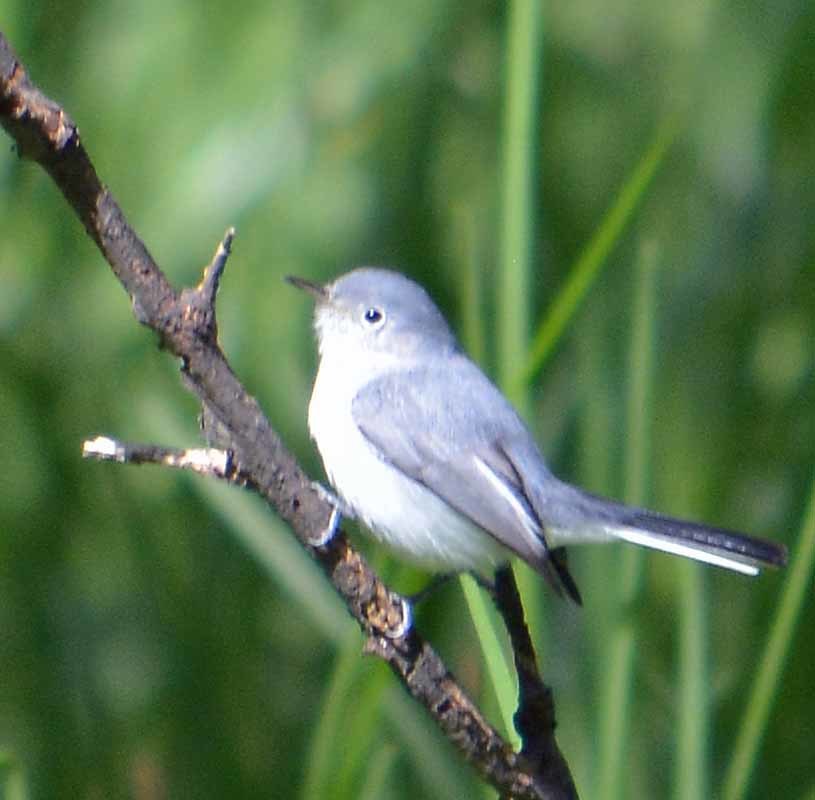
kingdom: Animalia
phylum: Chordata
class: Aves
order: Passeriformes
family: Polioptilidae
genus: Polioptila
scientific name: Polioptila caerulea
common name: Blue-gray gnatcatcher
